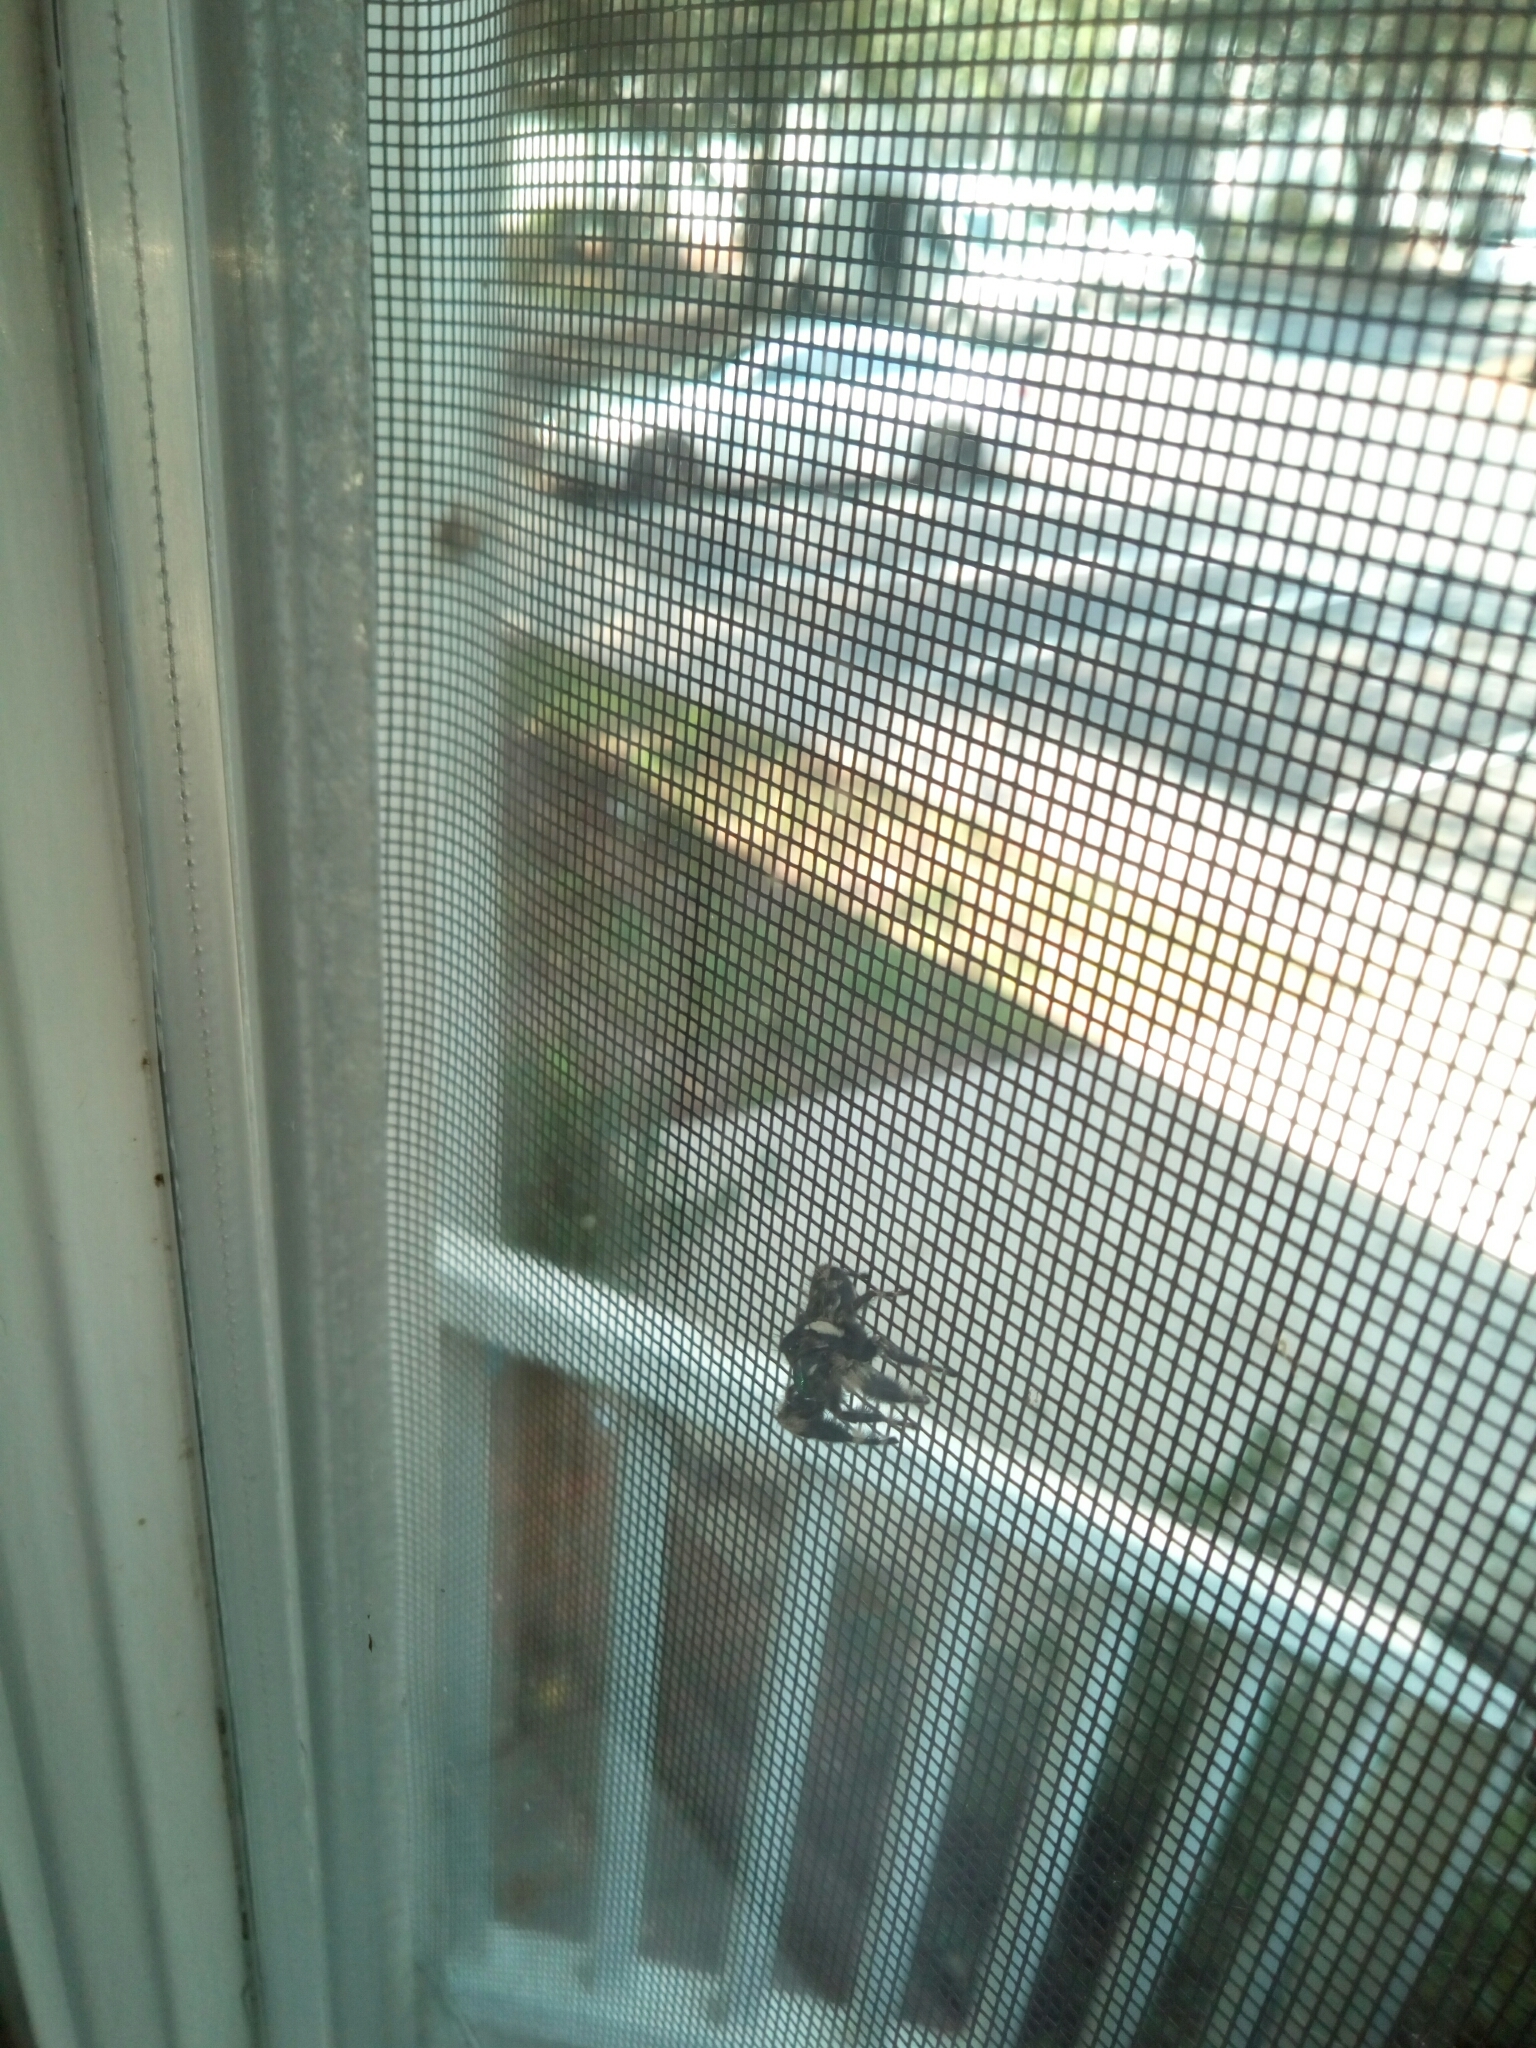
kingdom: Animalia
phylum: Arthropoda
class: Arachnida
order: Araneae
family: Salticidae
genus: Phidippus
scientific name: Phidippus otiosus
